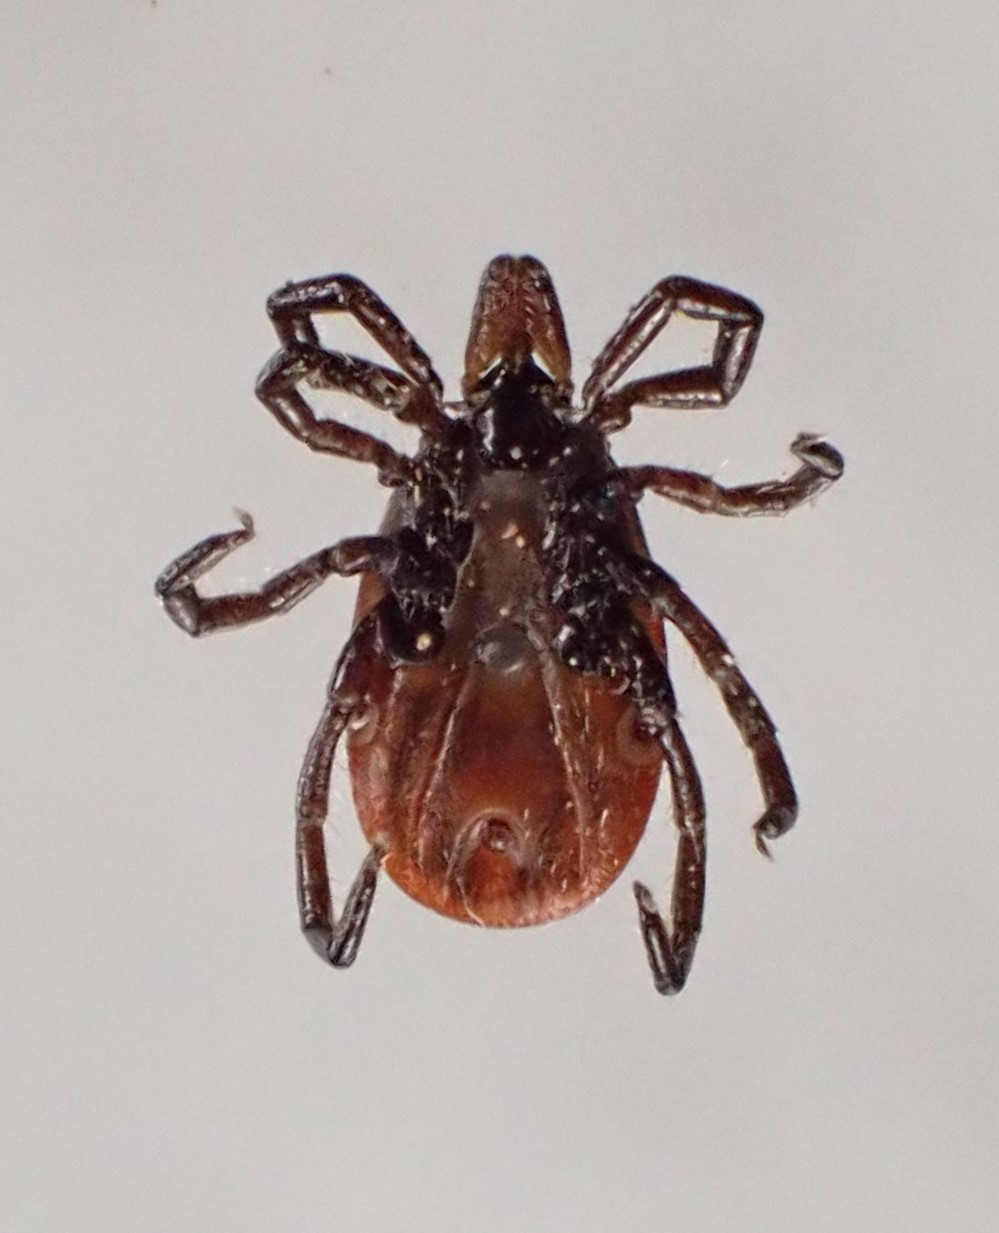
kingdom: Animalia
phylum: Arthropoda
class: Arachnida
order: Ixodida
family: Ixodidae
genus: Ixodes
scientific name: Ixodes scapularis
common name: Black legged tick
